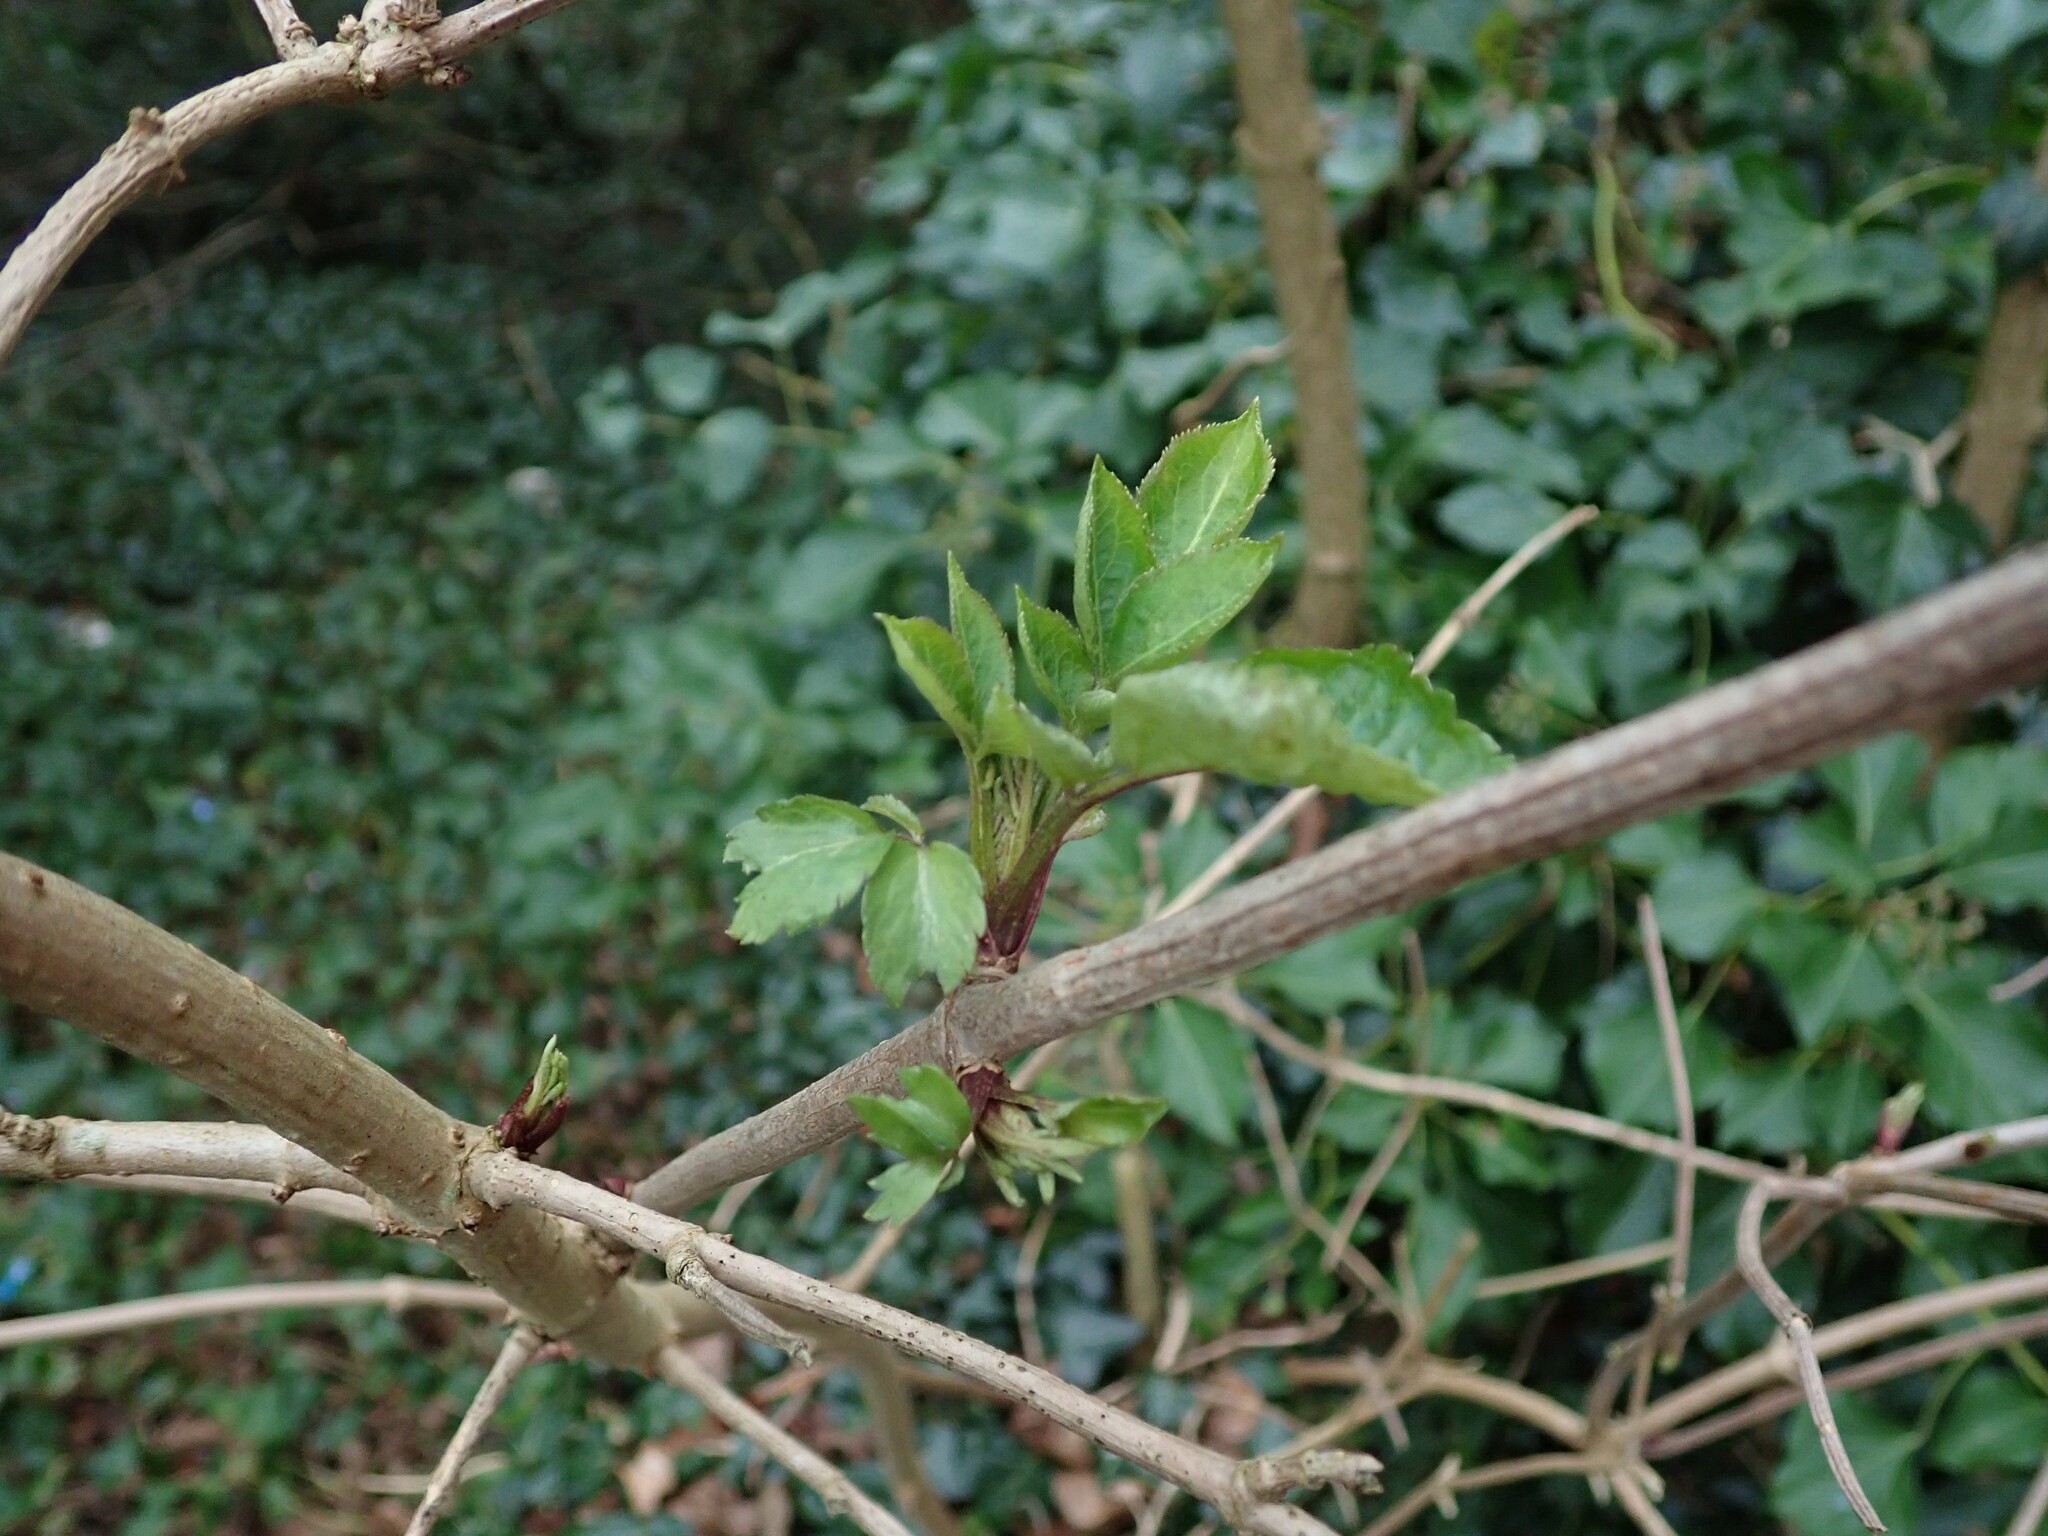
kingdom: Plantae
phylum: Tracheophyta
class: Magnoliopsida
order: Dipsacales
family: Viburnaceae
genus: Sambucus
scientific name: Sambucus nigra
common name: Elder
